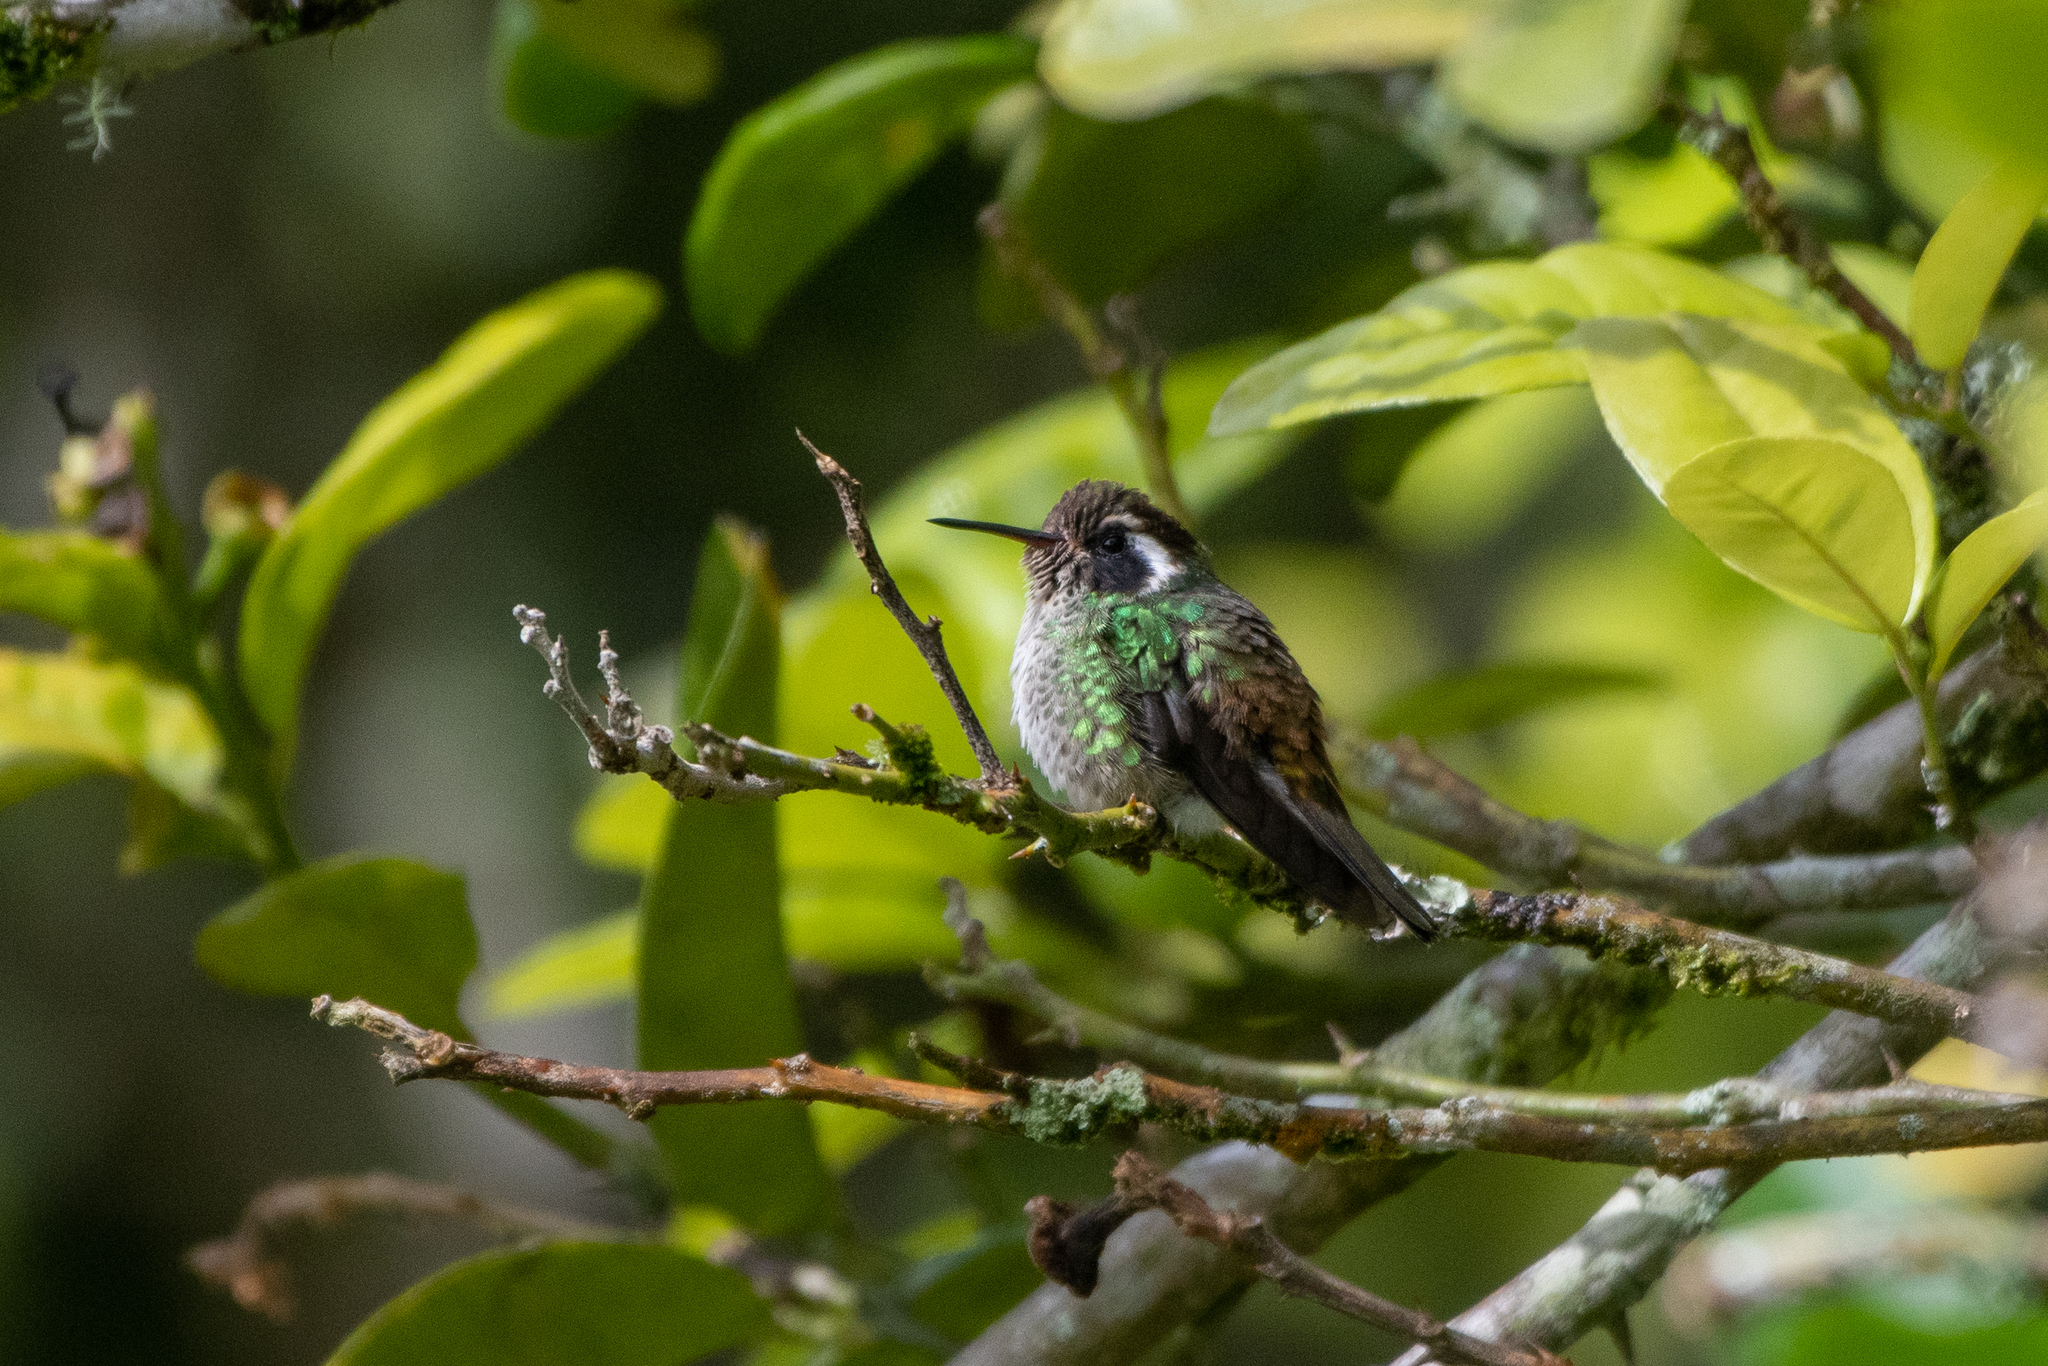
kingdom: Animalia
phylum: Chordata
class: Aves
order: Apodiformes
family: Trochilidae
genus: Basilinna
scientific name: Basilinna leucotis
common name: White-eared hummingbird
